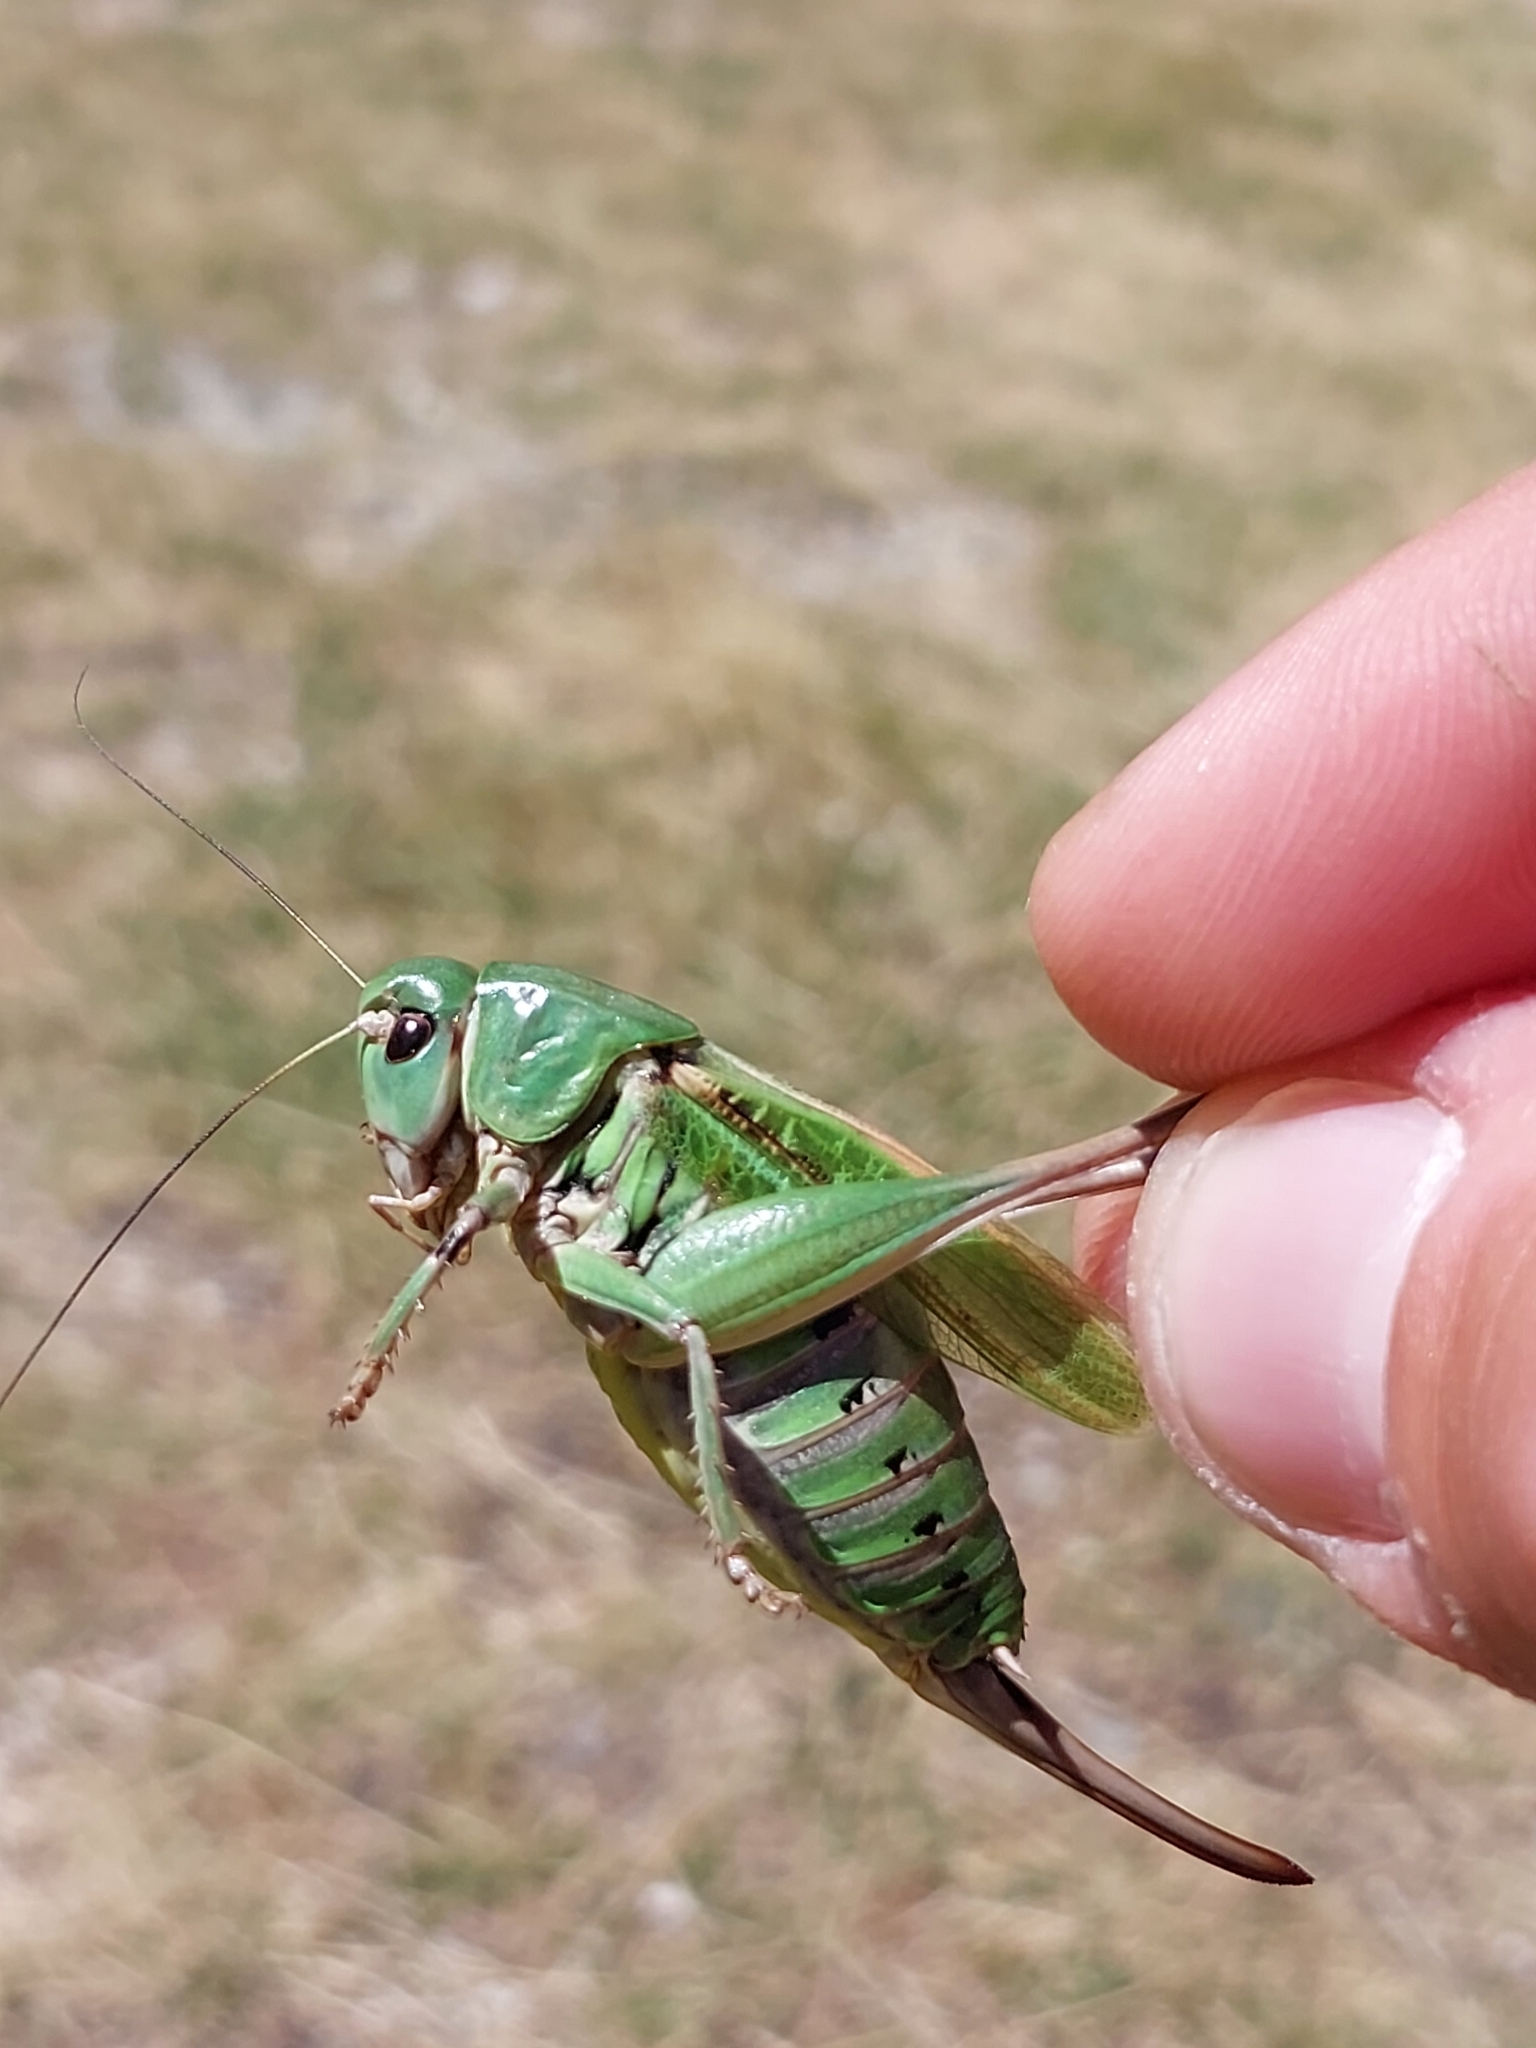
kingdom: Animalia
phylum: Arthropoda
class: Insecta
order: Orthoptera
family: Tettigoniidae
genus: Decticus
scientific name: Decticus verrucivorus
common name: Wart-biter
